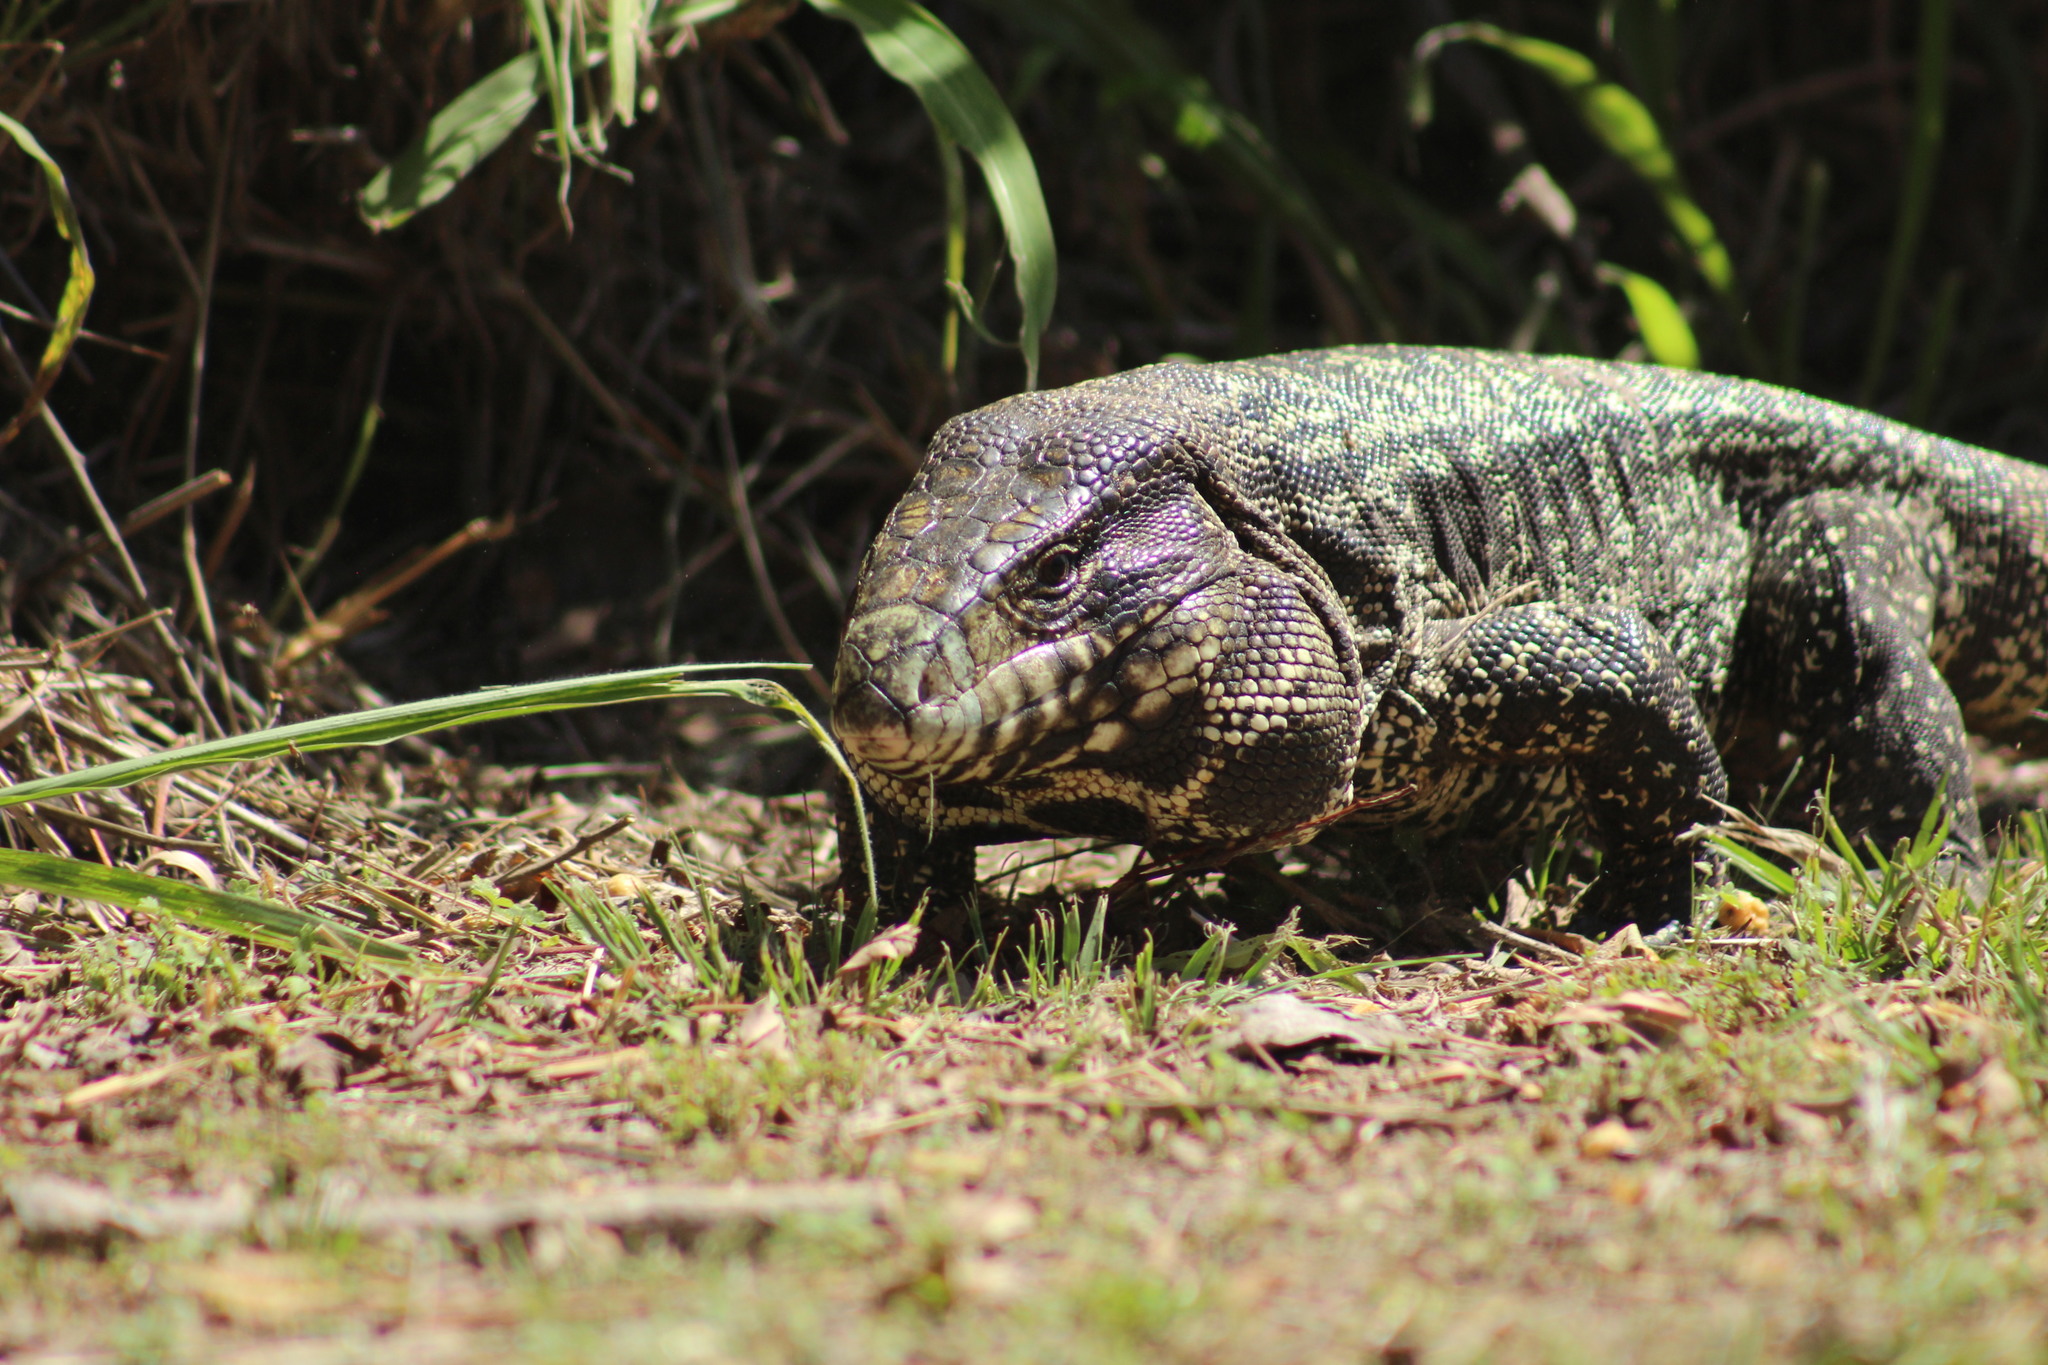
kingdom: Animalia
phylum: Chordata
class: Squamata
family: Teiidae
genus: Salvator
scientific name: Salvator merianae
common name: Argentine black and white tegu
